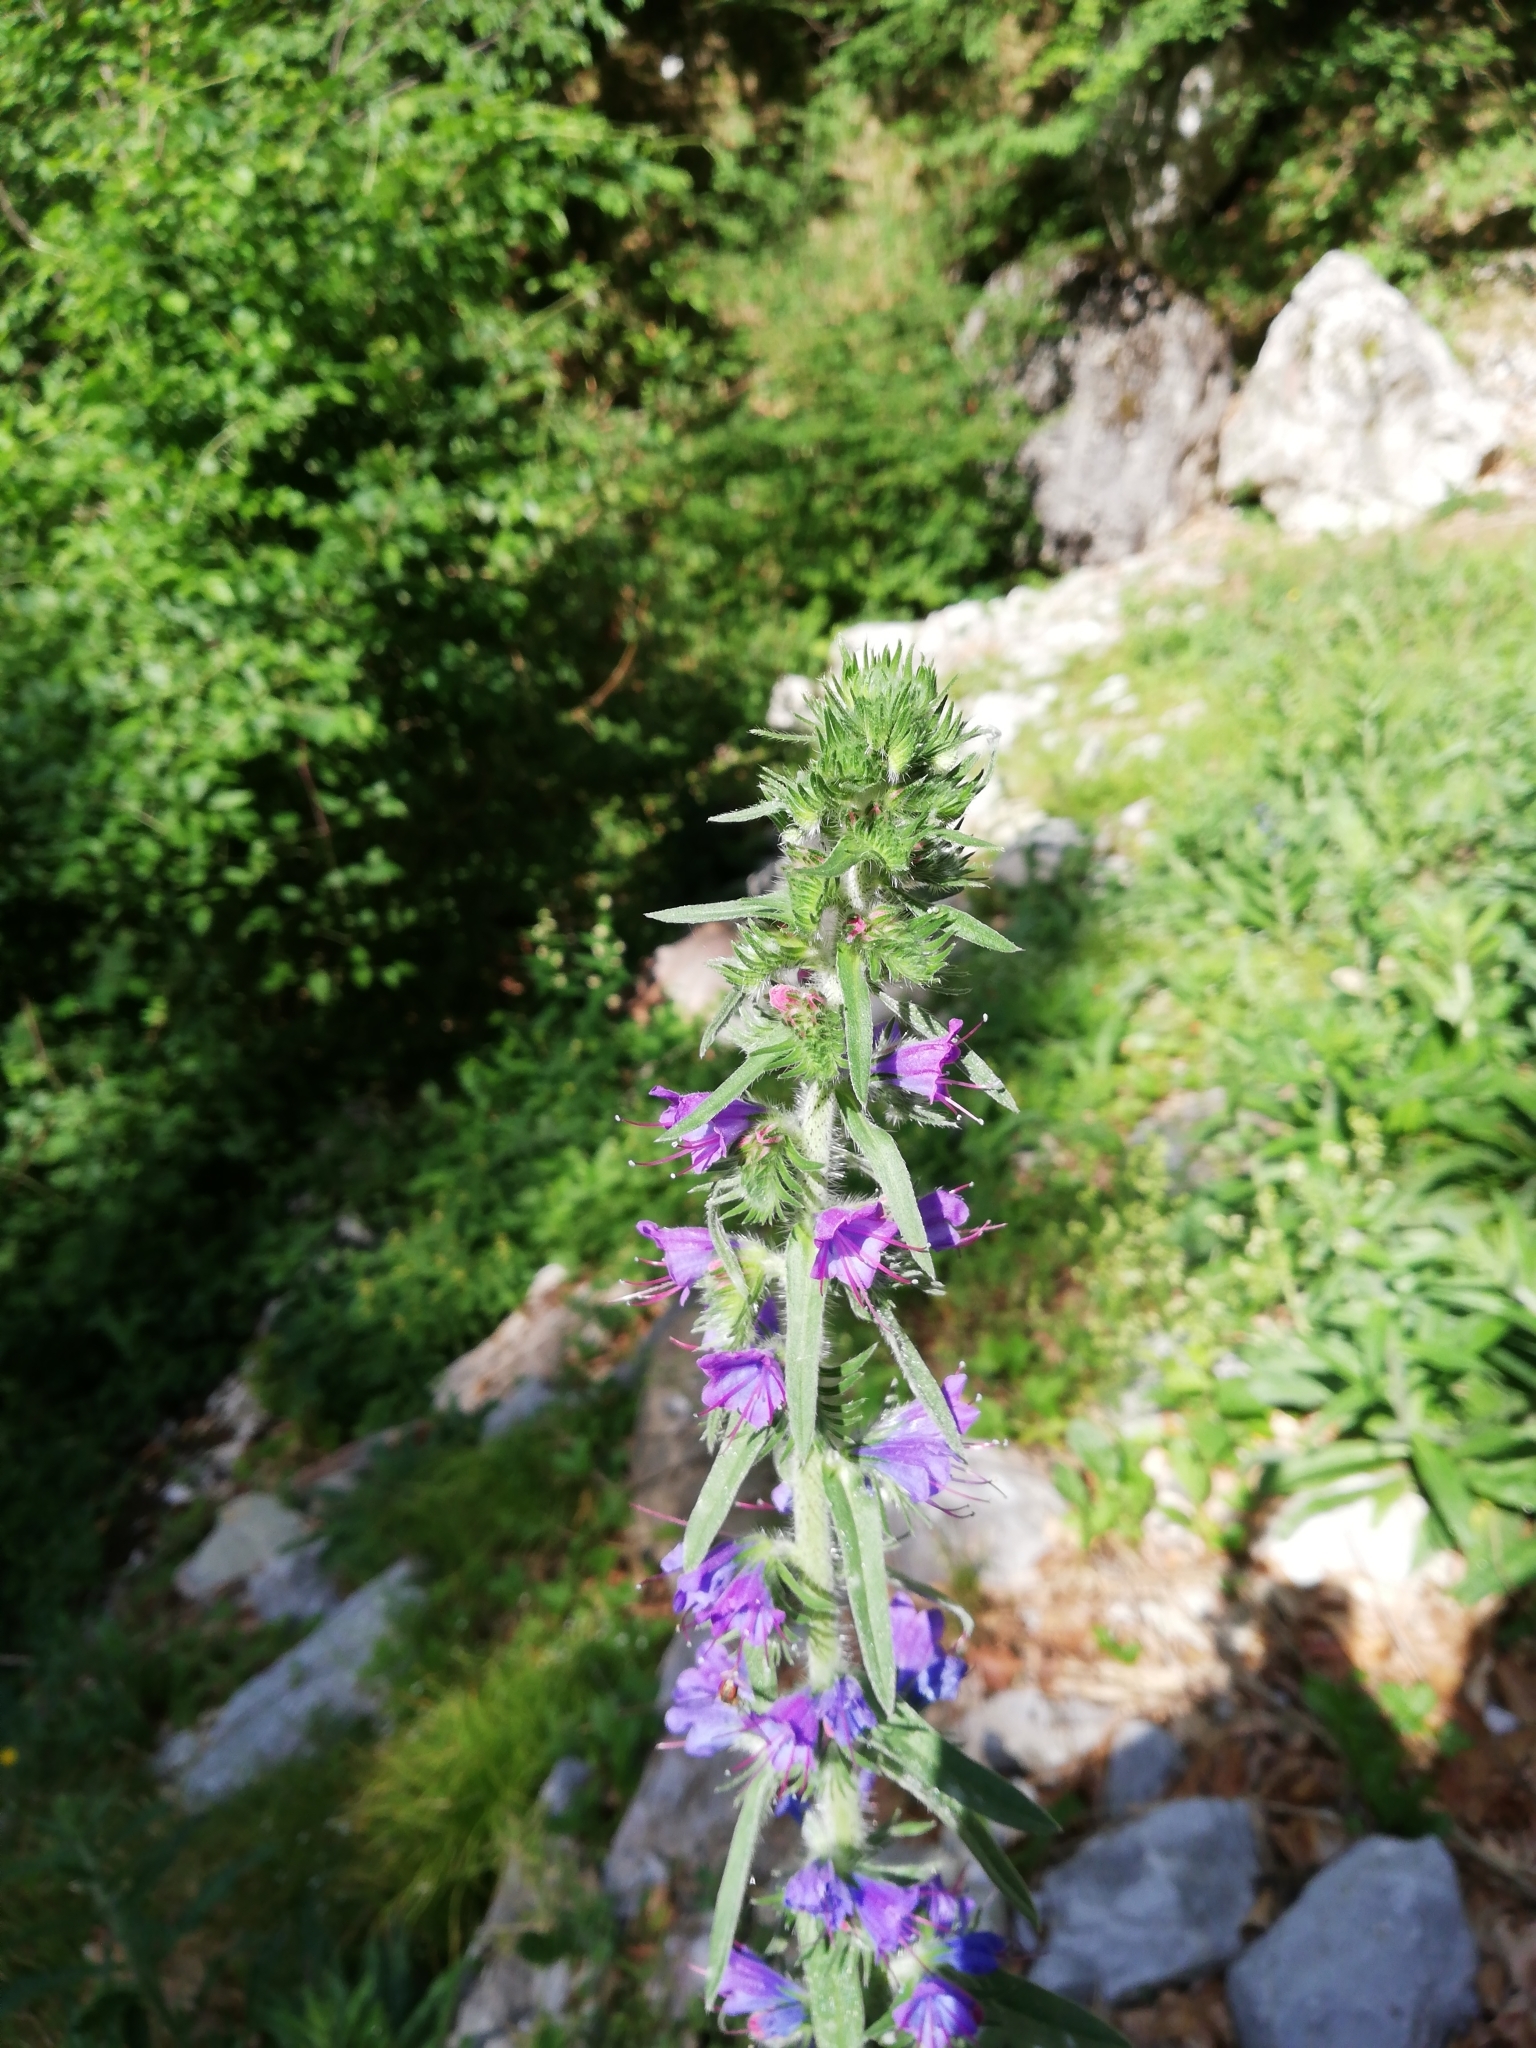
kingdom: Plantae
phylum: Tracheophyta
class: Magnoliopsida
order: Boraginales
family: Boraginaceae
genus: Echium
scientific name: Echium vulgare
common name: Common viper's bugloss
